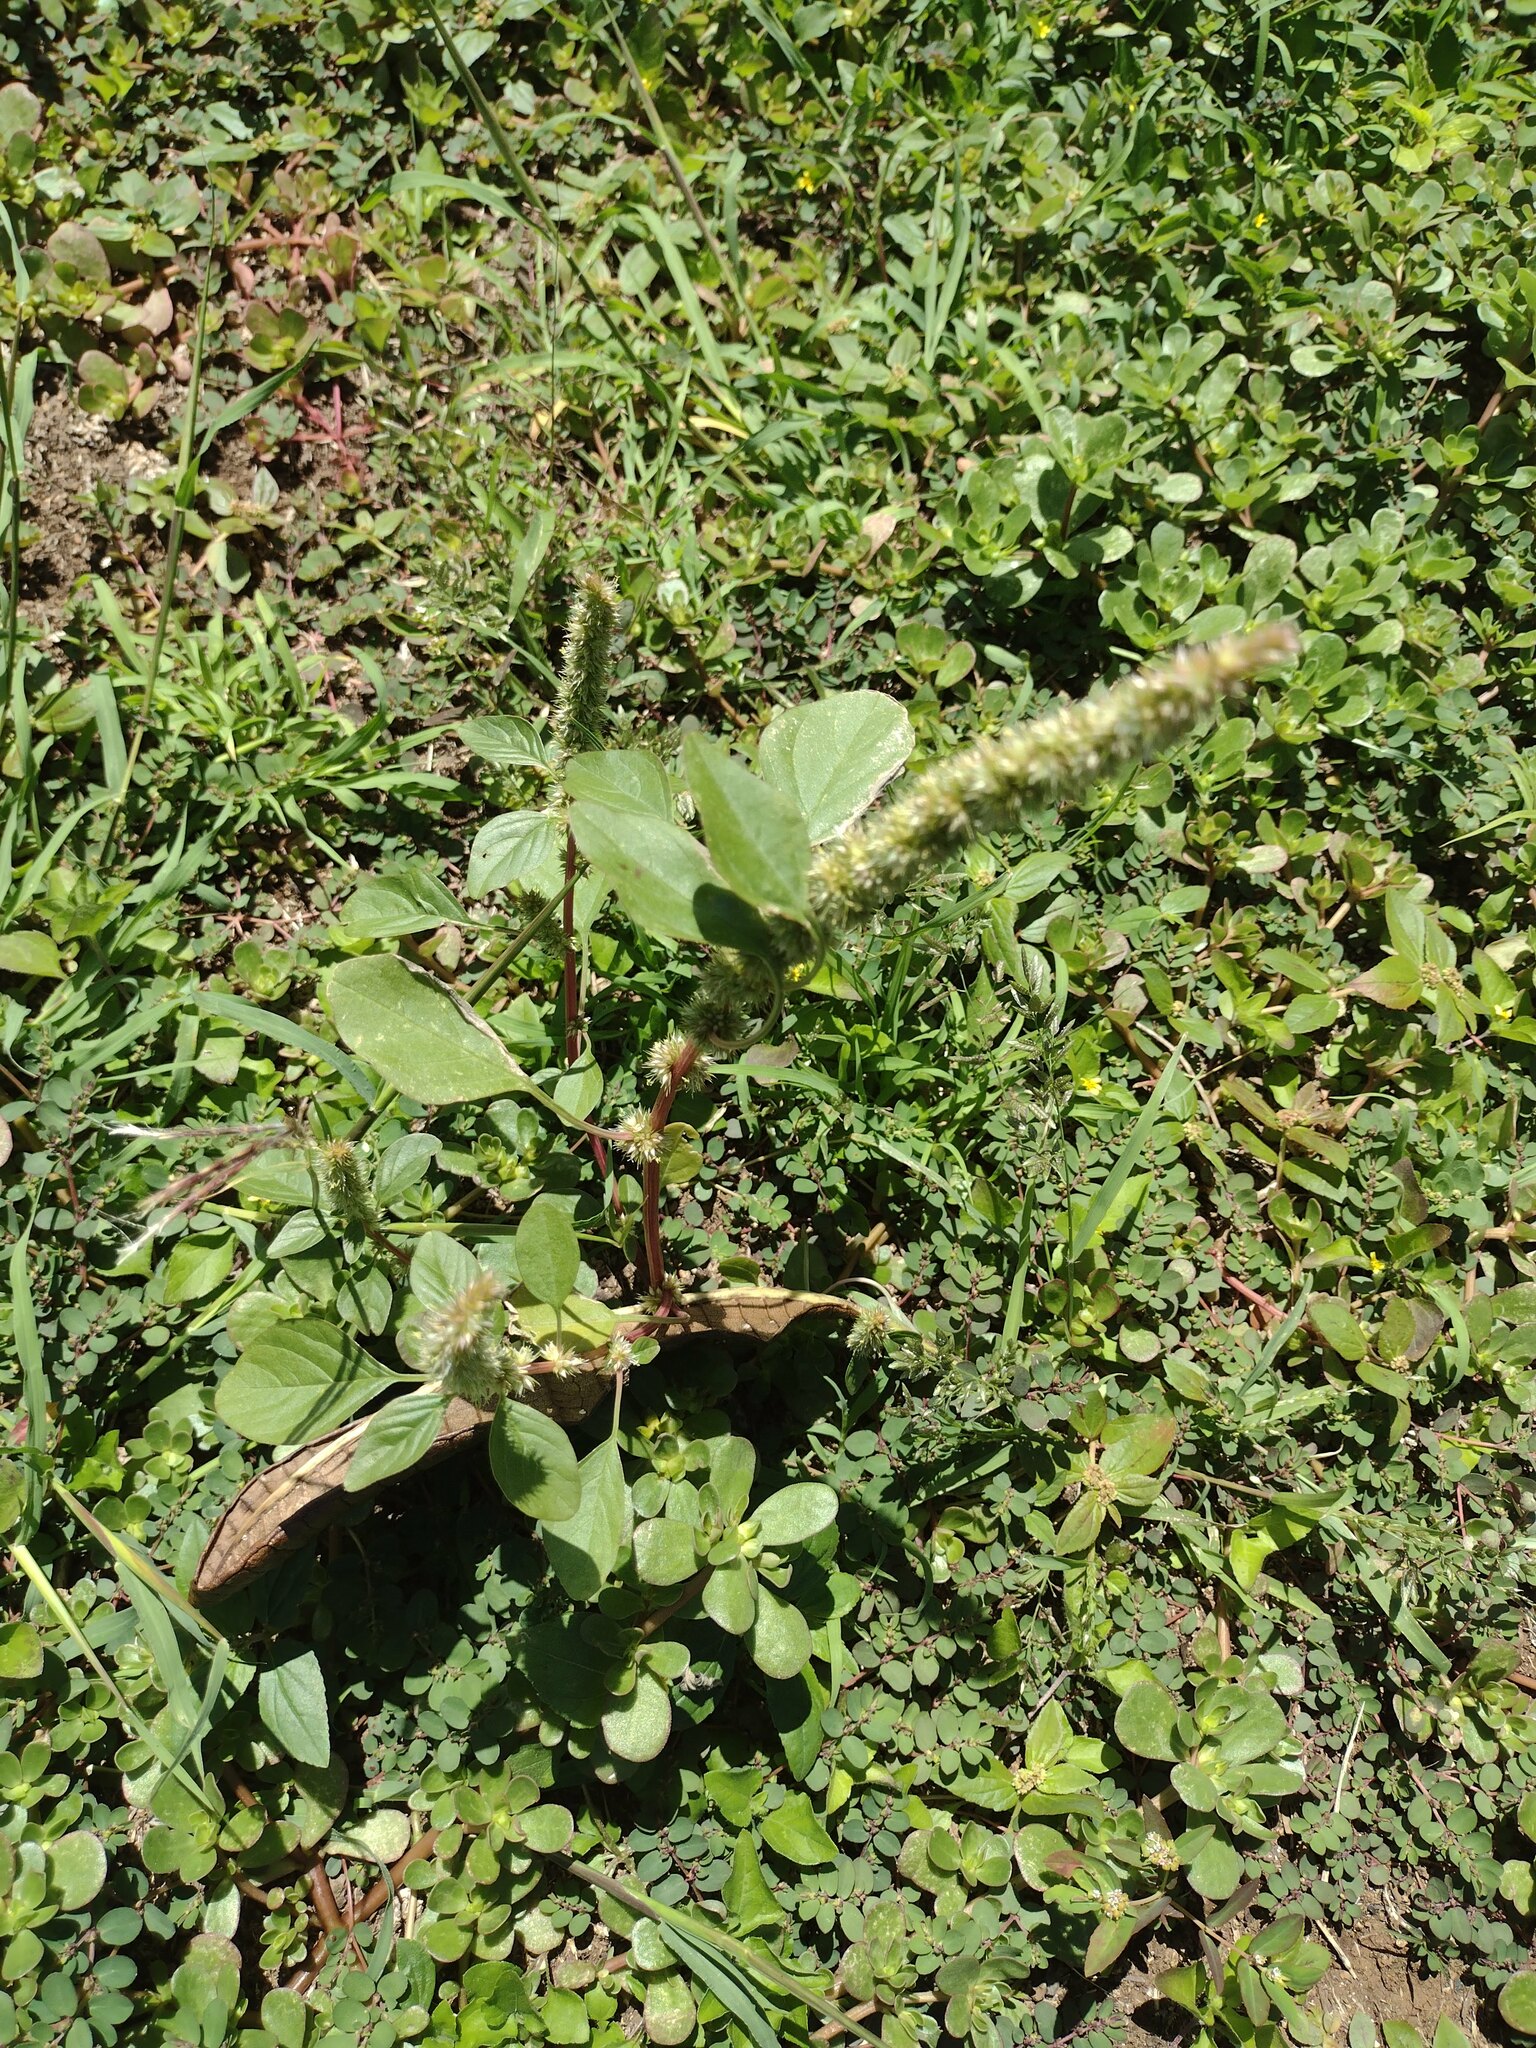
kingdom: Plantae
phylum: Tracheophyta
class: Magnoliopsida
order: Caryophyllales
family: Amaranthaceae
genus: Amaranthus
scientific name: Amaranthus palmeri
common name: Dioecious amaranth
